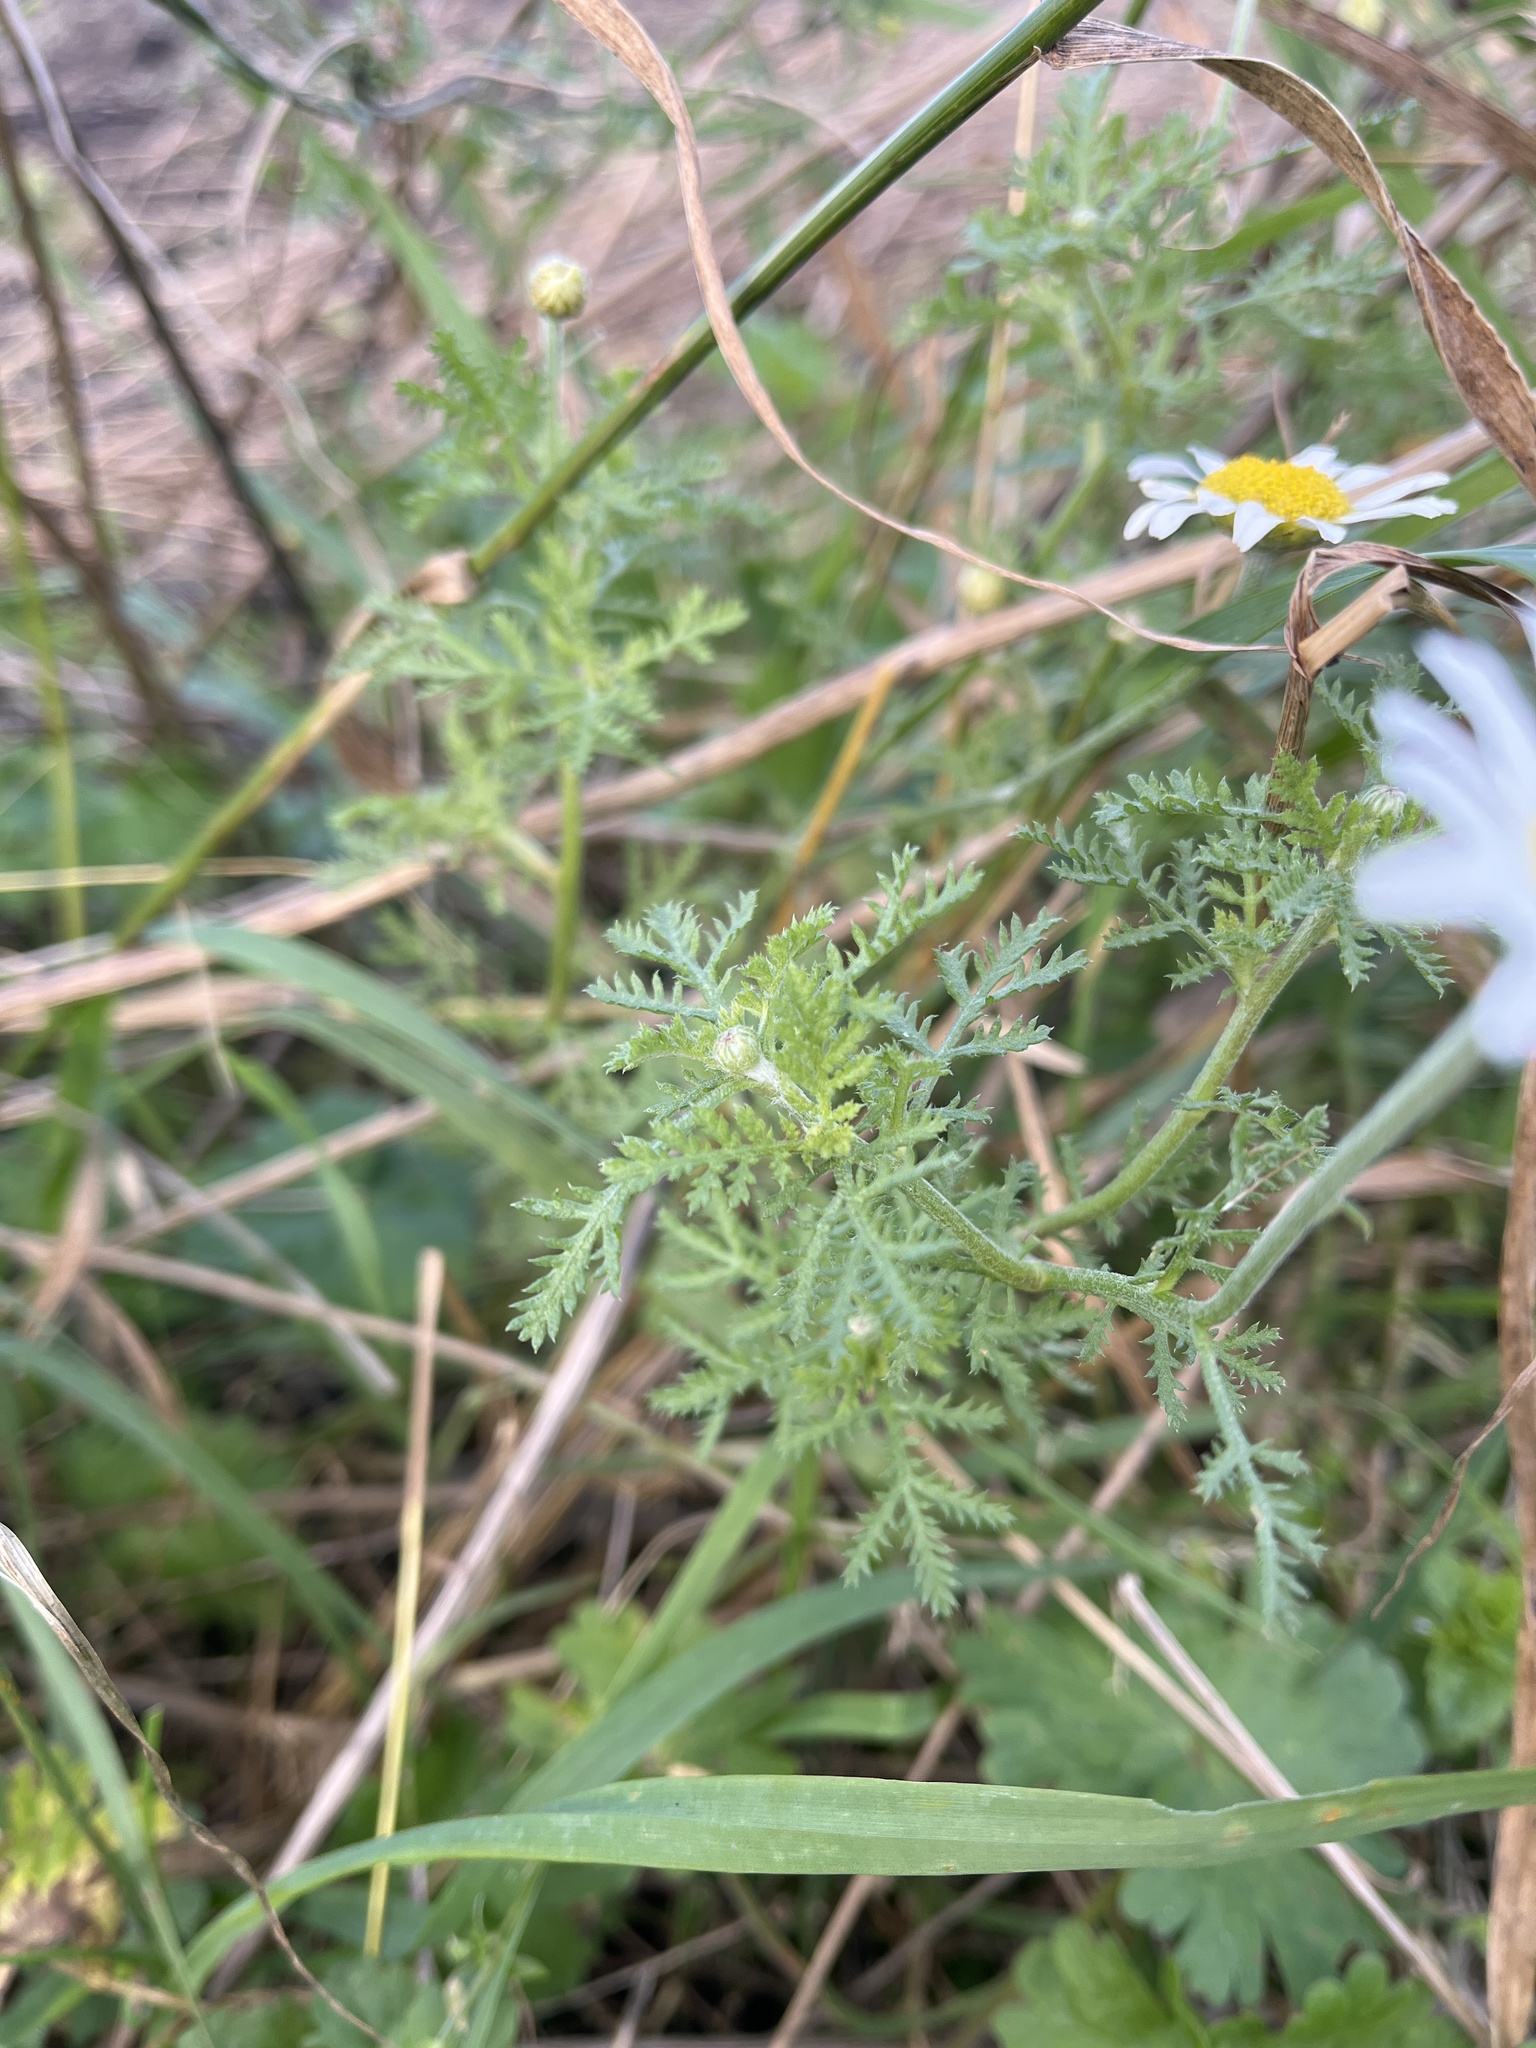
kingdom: Plantae
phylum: Tracheophyta
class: Magnoliopsida
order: Asterales
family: Asteraceae
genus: Cota
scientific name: Cota austriaca
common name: Austrian chamomile
